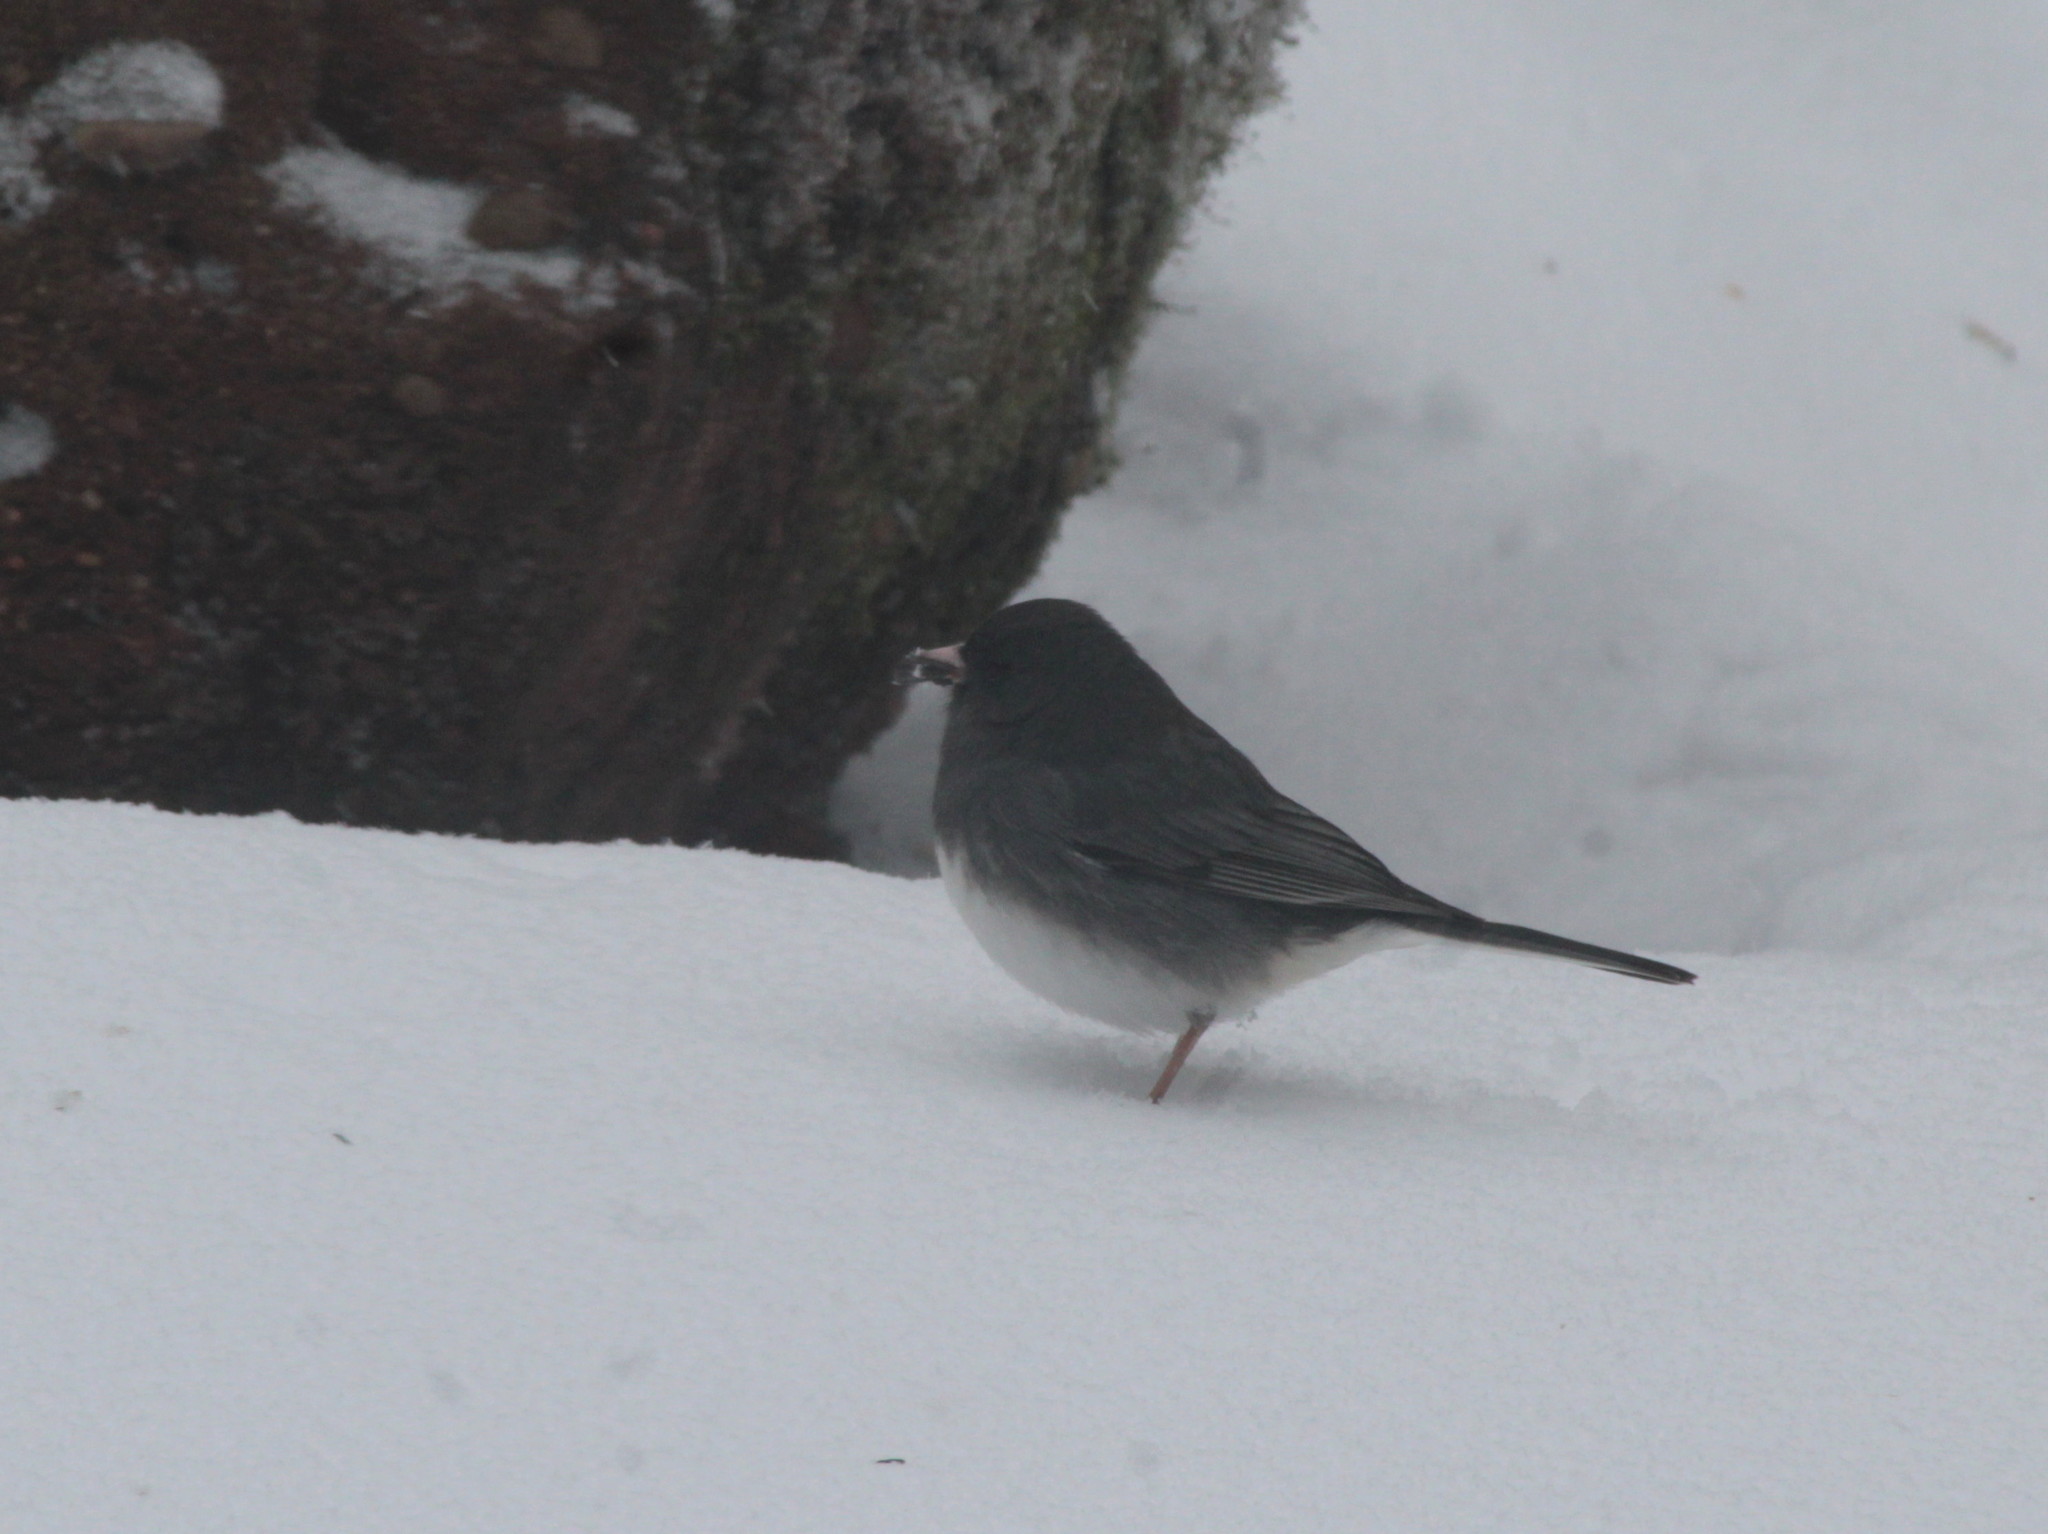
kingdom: Animalia
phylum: Chordata
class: Aves
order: Passeriformes
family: Passerellidae
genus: Junco
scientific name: Junco hyemalis
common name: Dark-eyed junco
